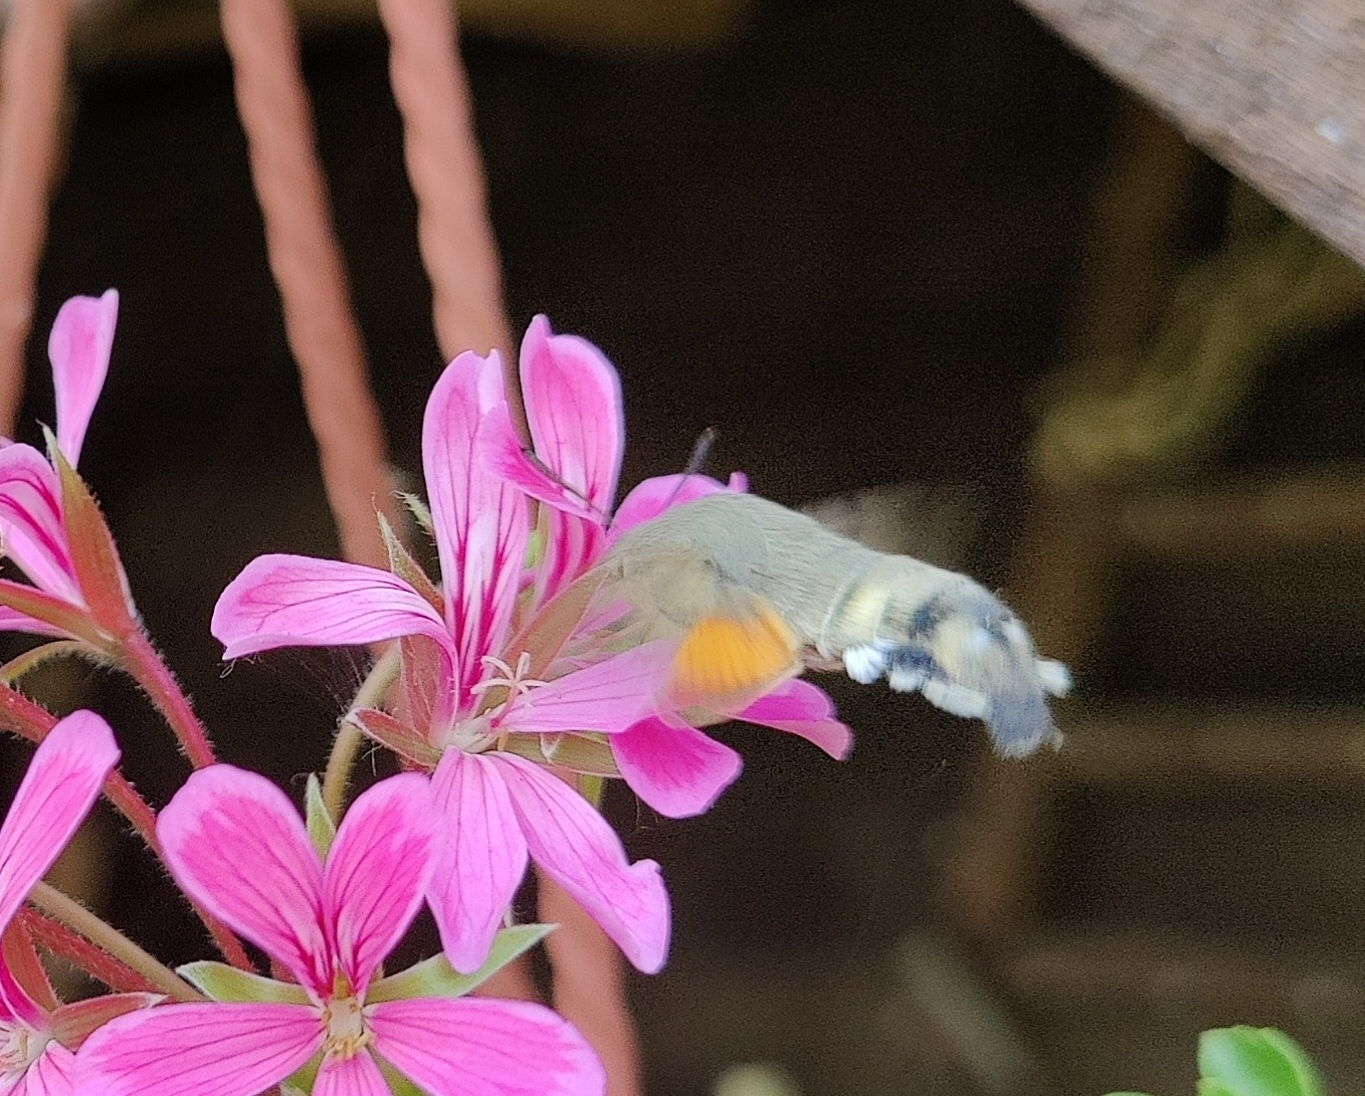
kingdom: Animalia
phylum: Arthropoda
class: Insecta
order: Lepidoptera
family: Sphingidae
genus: Macroglossum
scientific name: Macroglossum stellatarum
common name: Humming-bird hawk-moth
